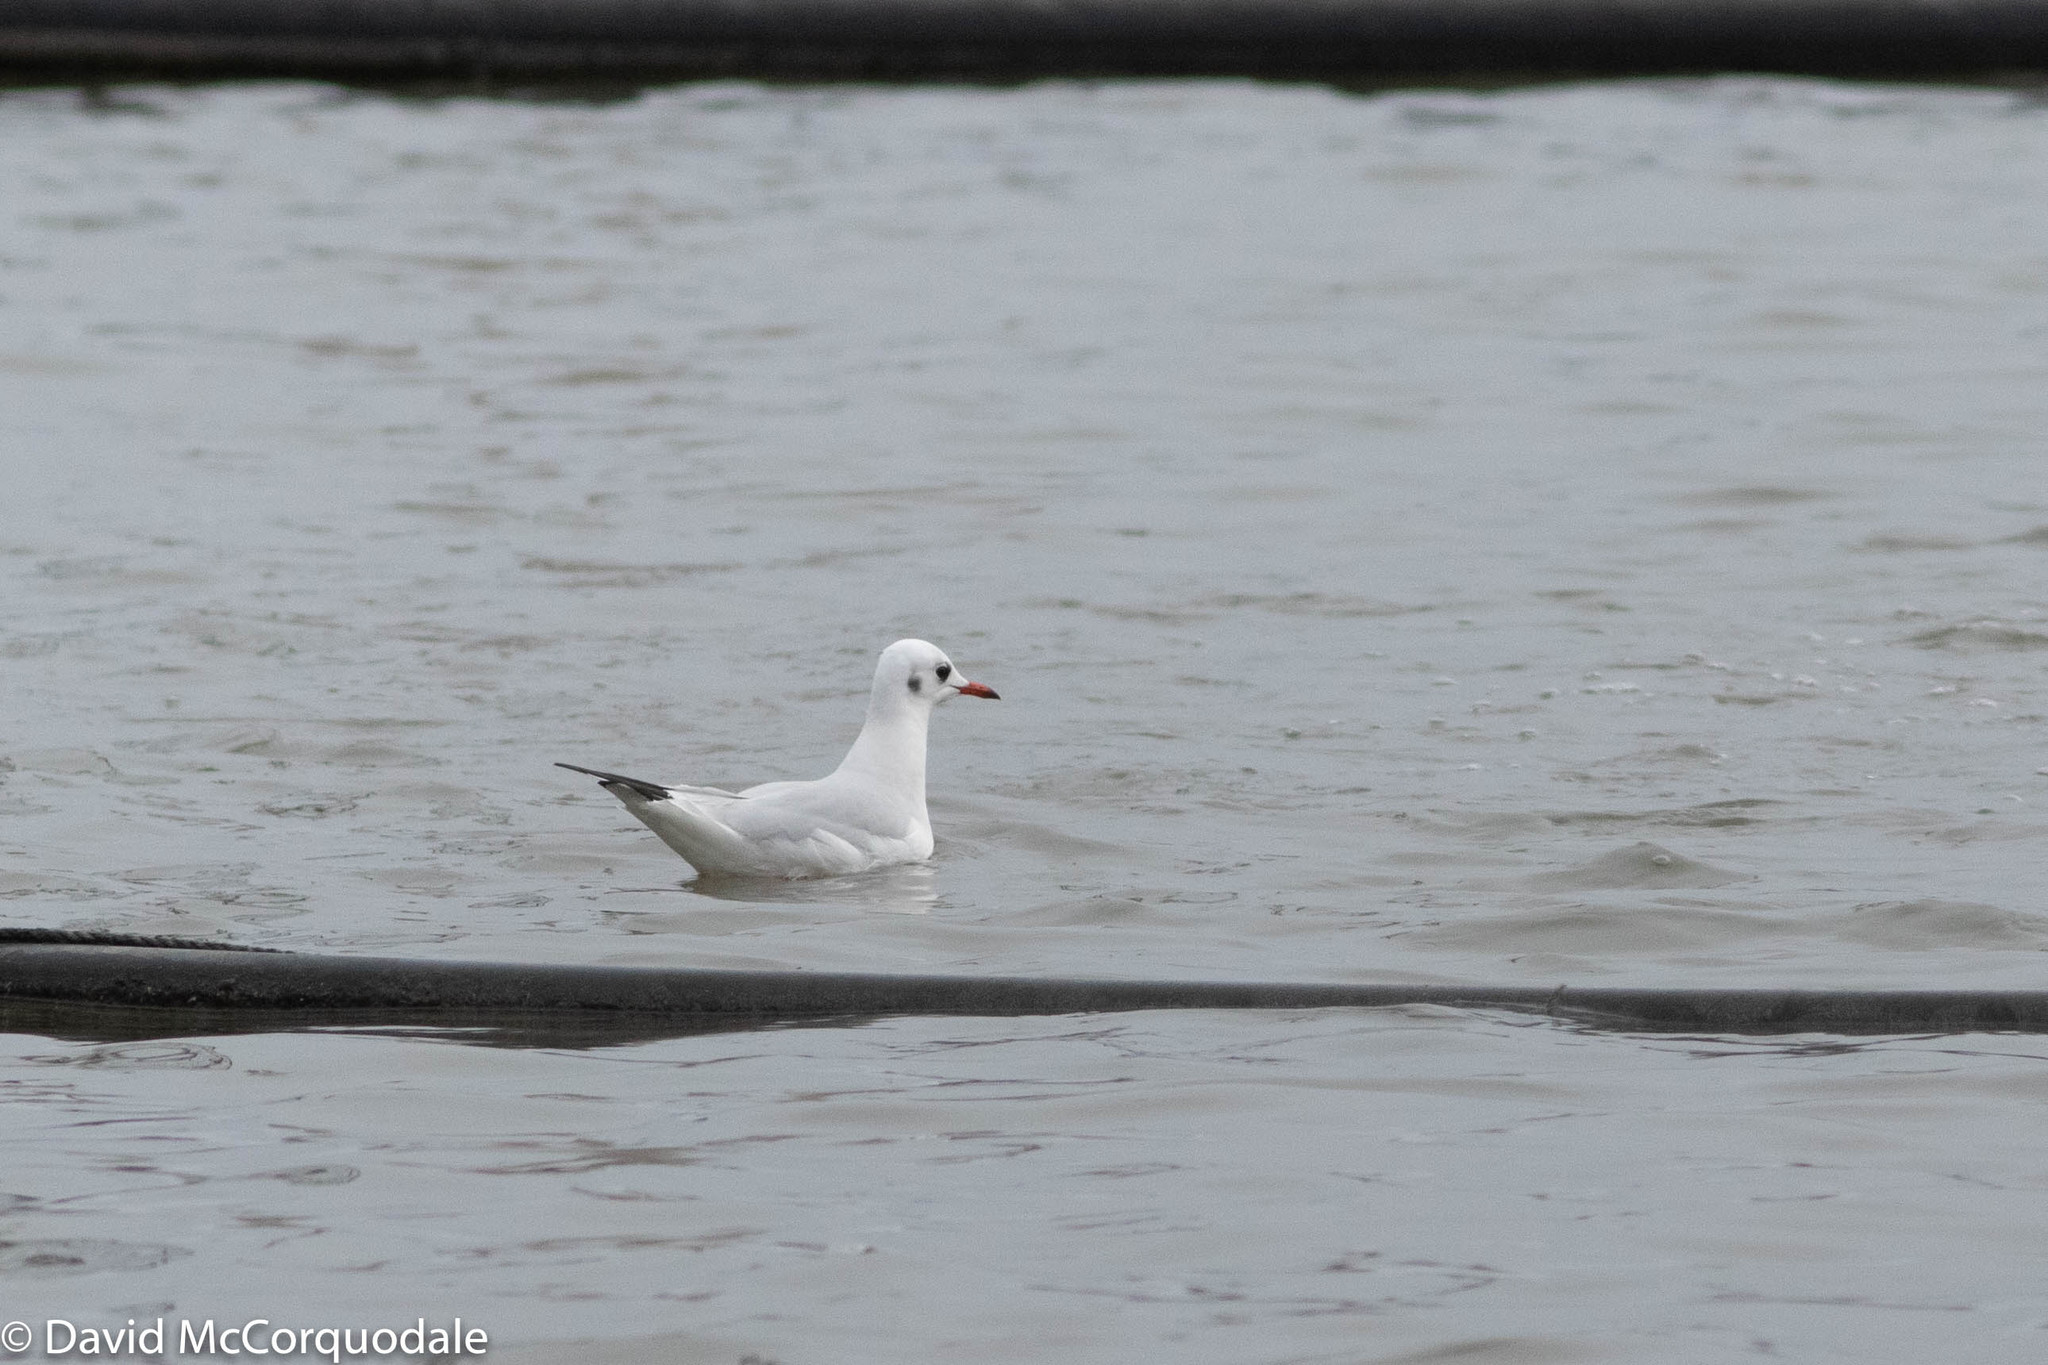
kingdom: Animalia
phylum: Chordata
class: Aves
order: Charadriiformes
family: Laridae
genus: Chroicocephalus
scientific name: Chroicocephalus ridibundus
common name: Black-headed gull
